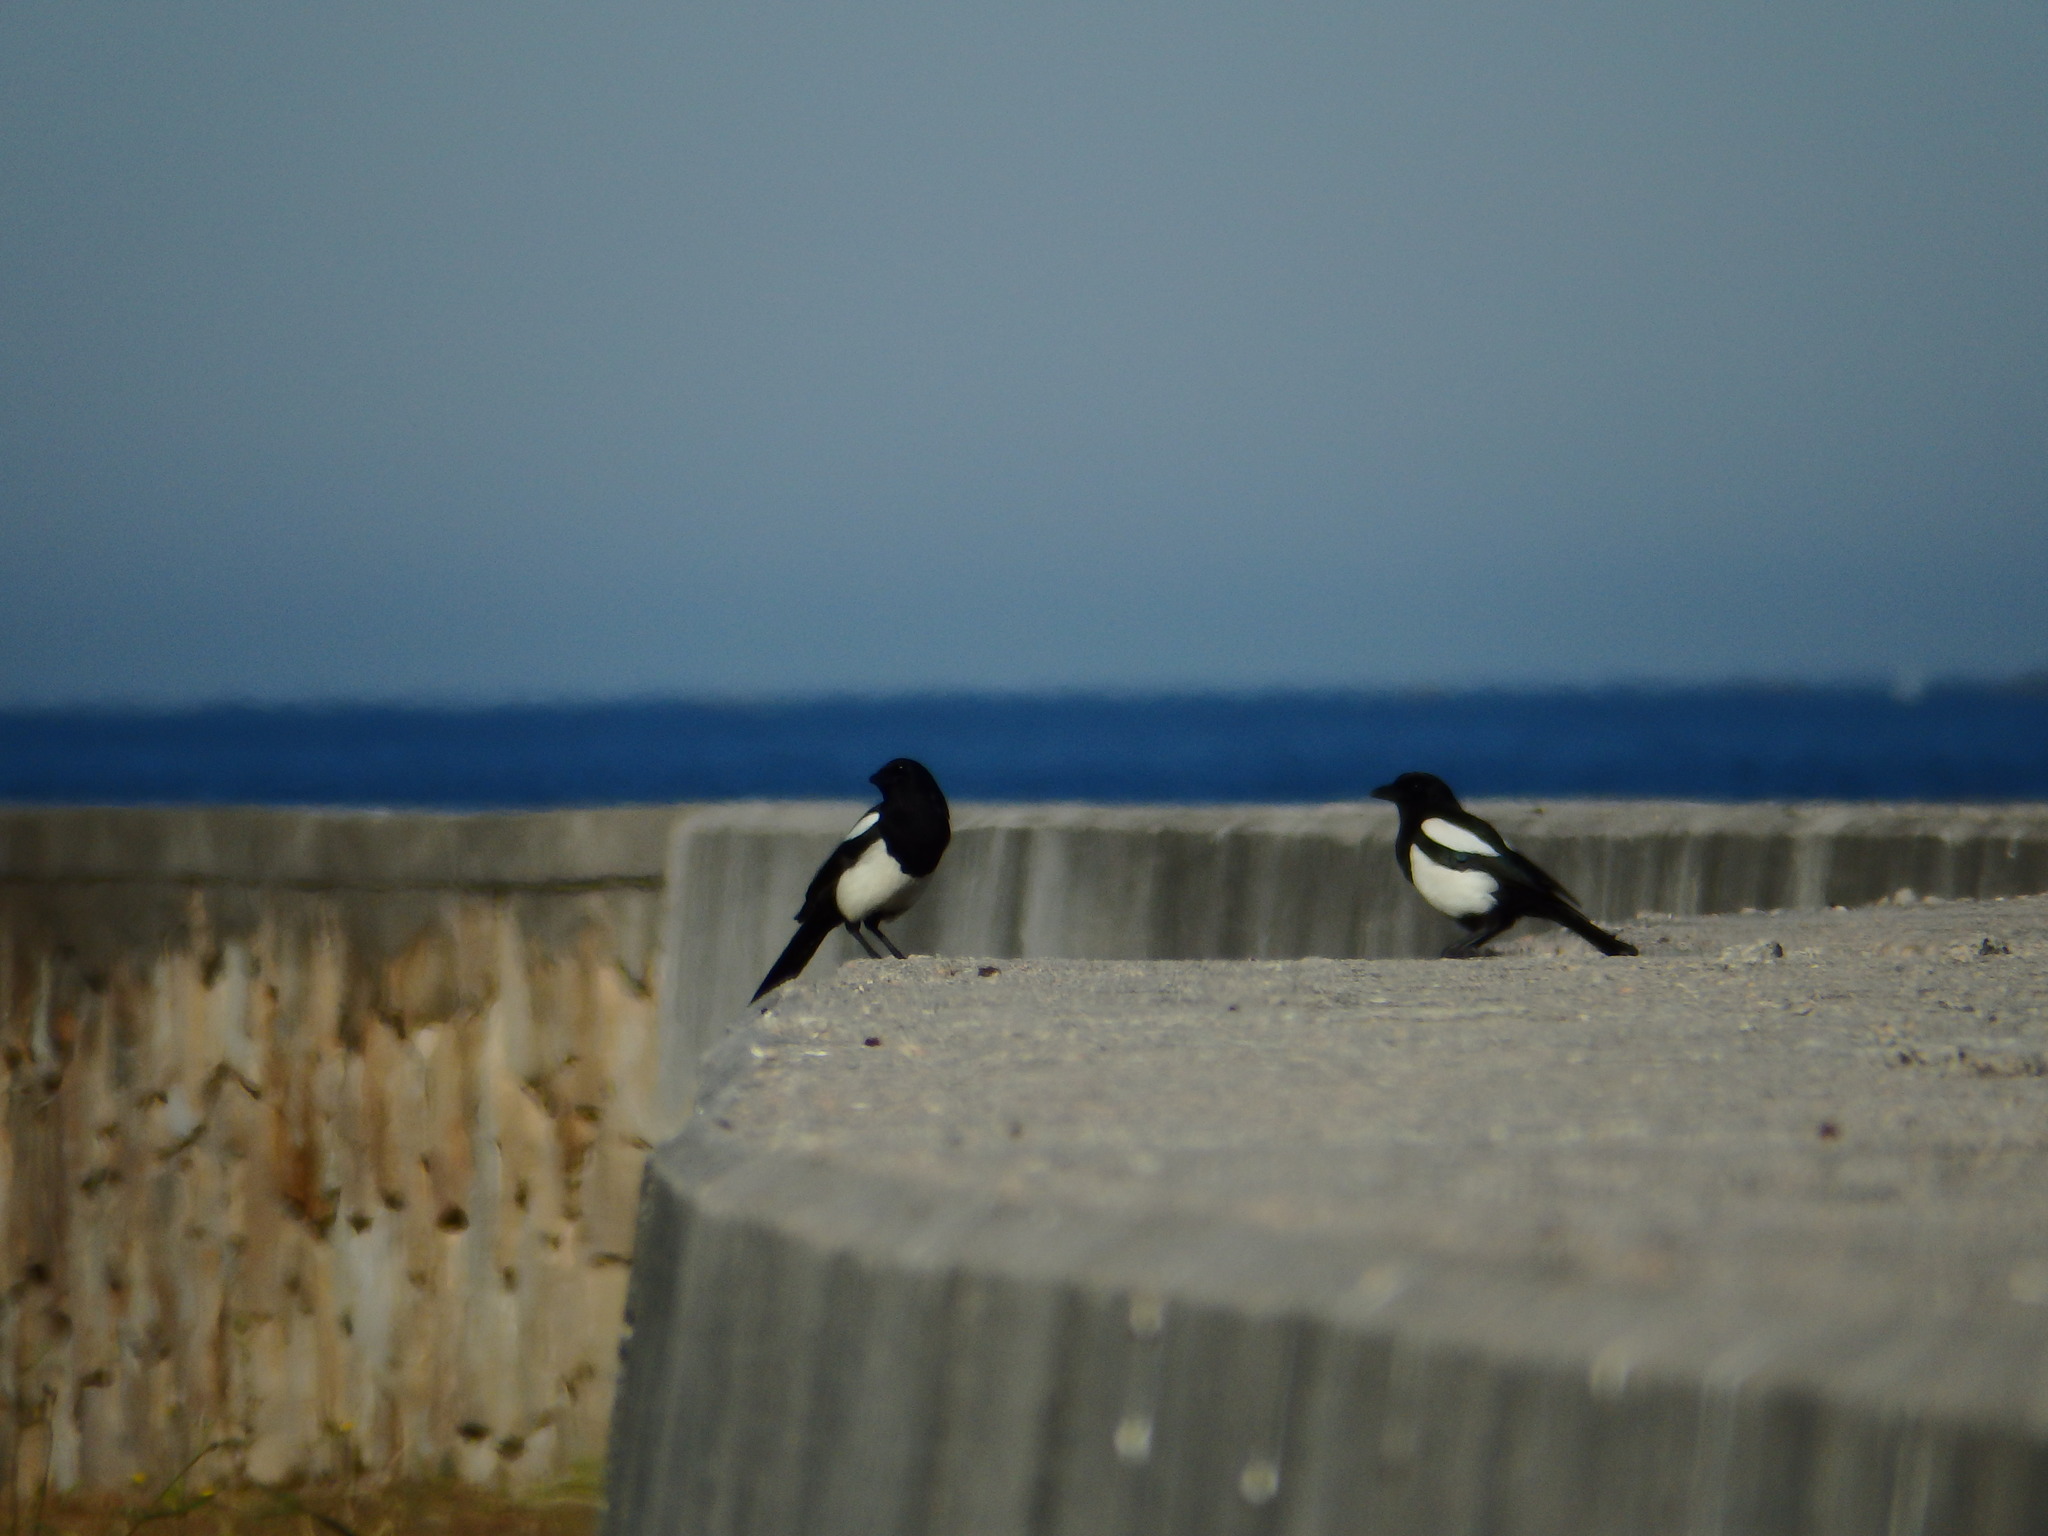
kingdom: Animalia
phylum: Chordata
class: Aves
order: Passeriformes
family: Corvidae
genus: Pica
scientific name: Pica pica
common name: Eurasian magpie
